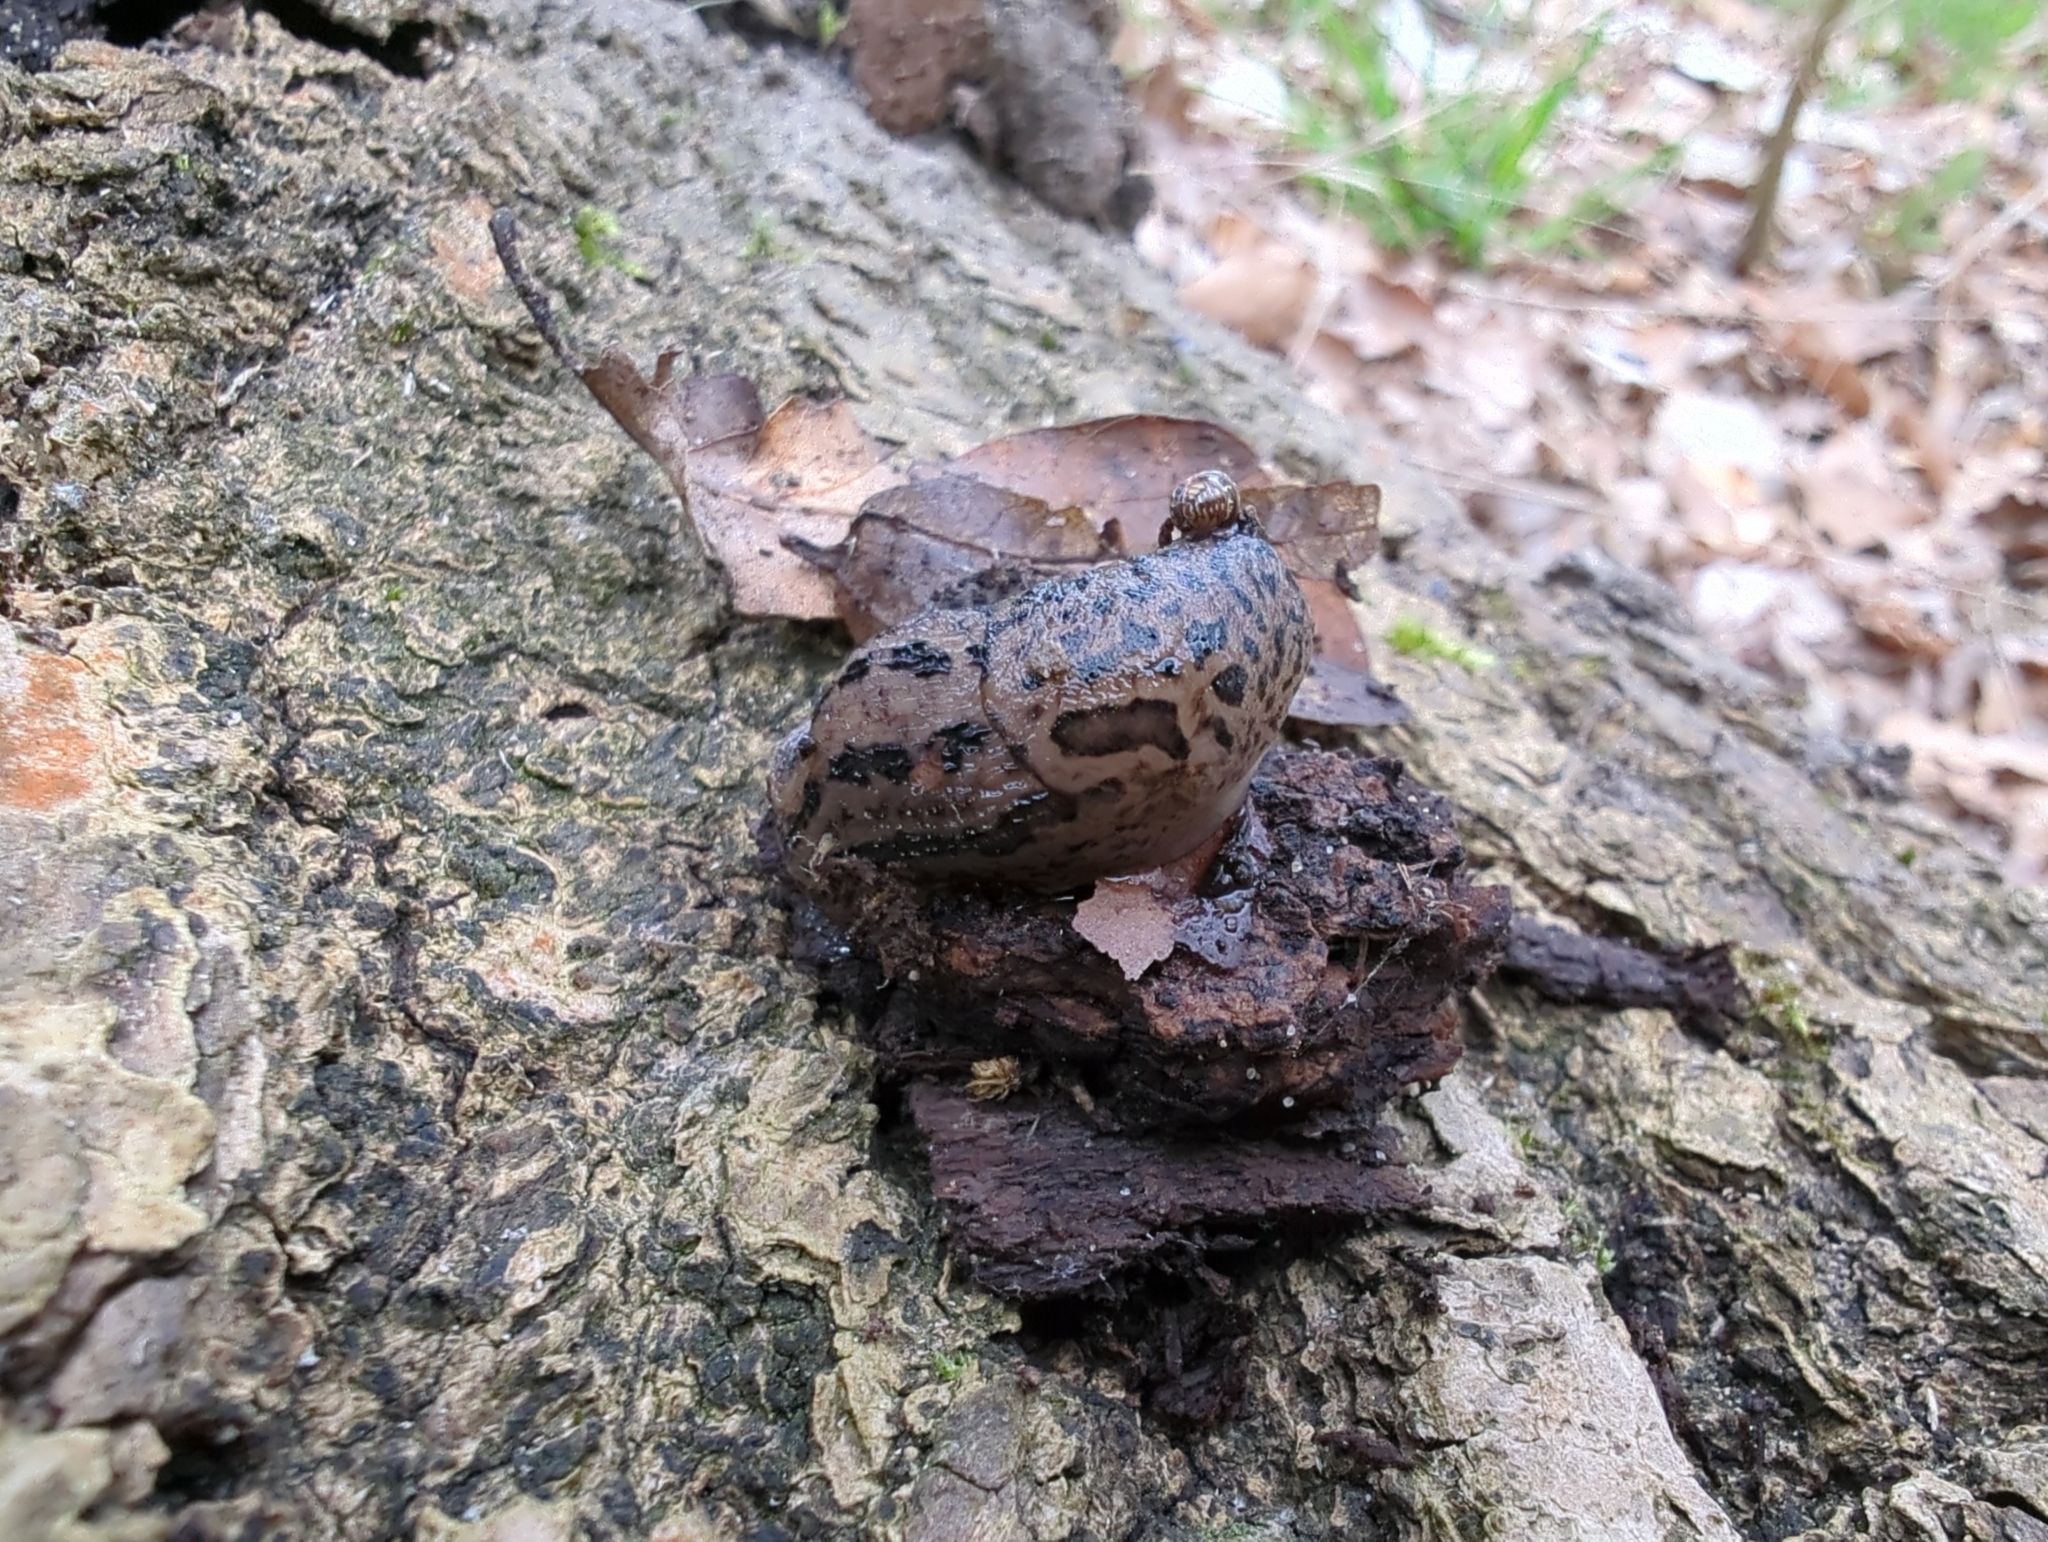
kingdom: Animalia
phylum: Mollusca
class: Gastropoda
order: Stylommatophora
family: Limacidae
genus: Limax
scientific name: Limax maximus
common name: Great grey slug
